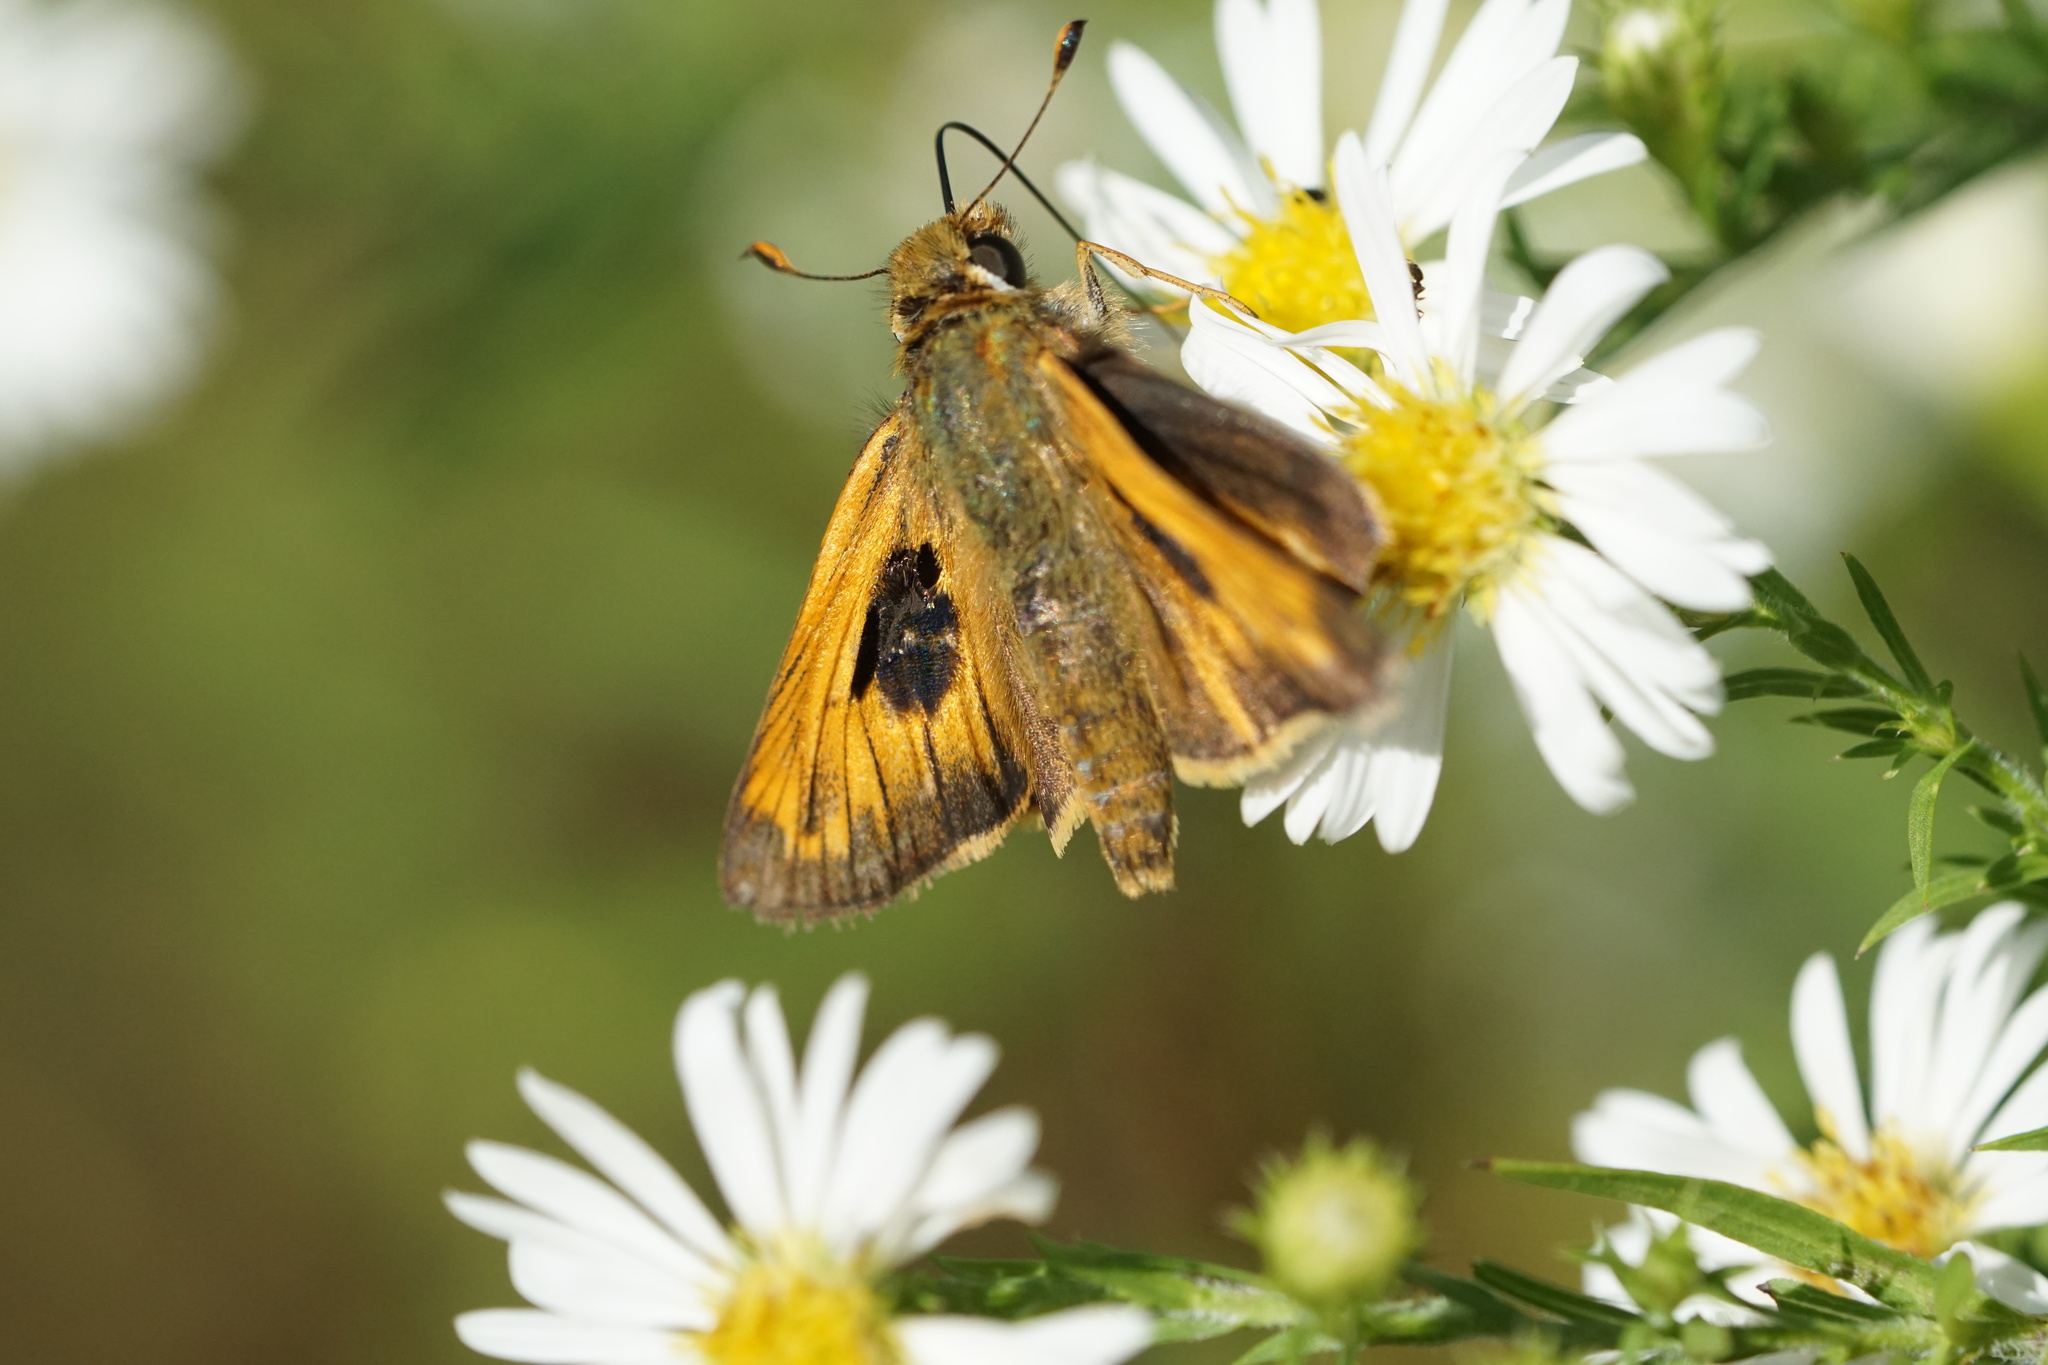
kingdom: Animalia
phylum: Arthropoda
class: Insecta
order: Lepidoptera
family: Hesperiidae
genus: Atalopedes
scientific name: Atalopedes
